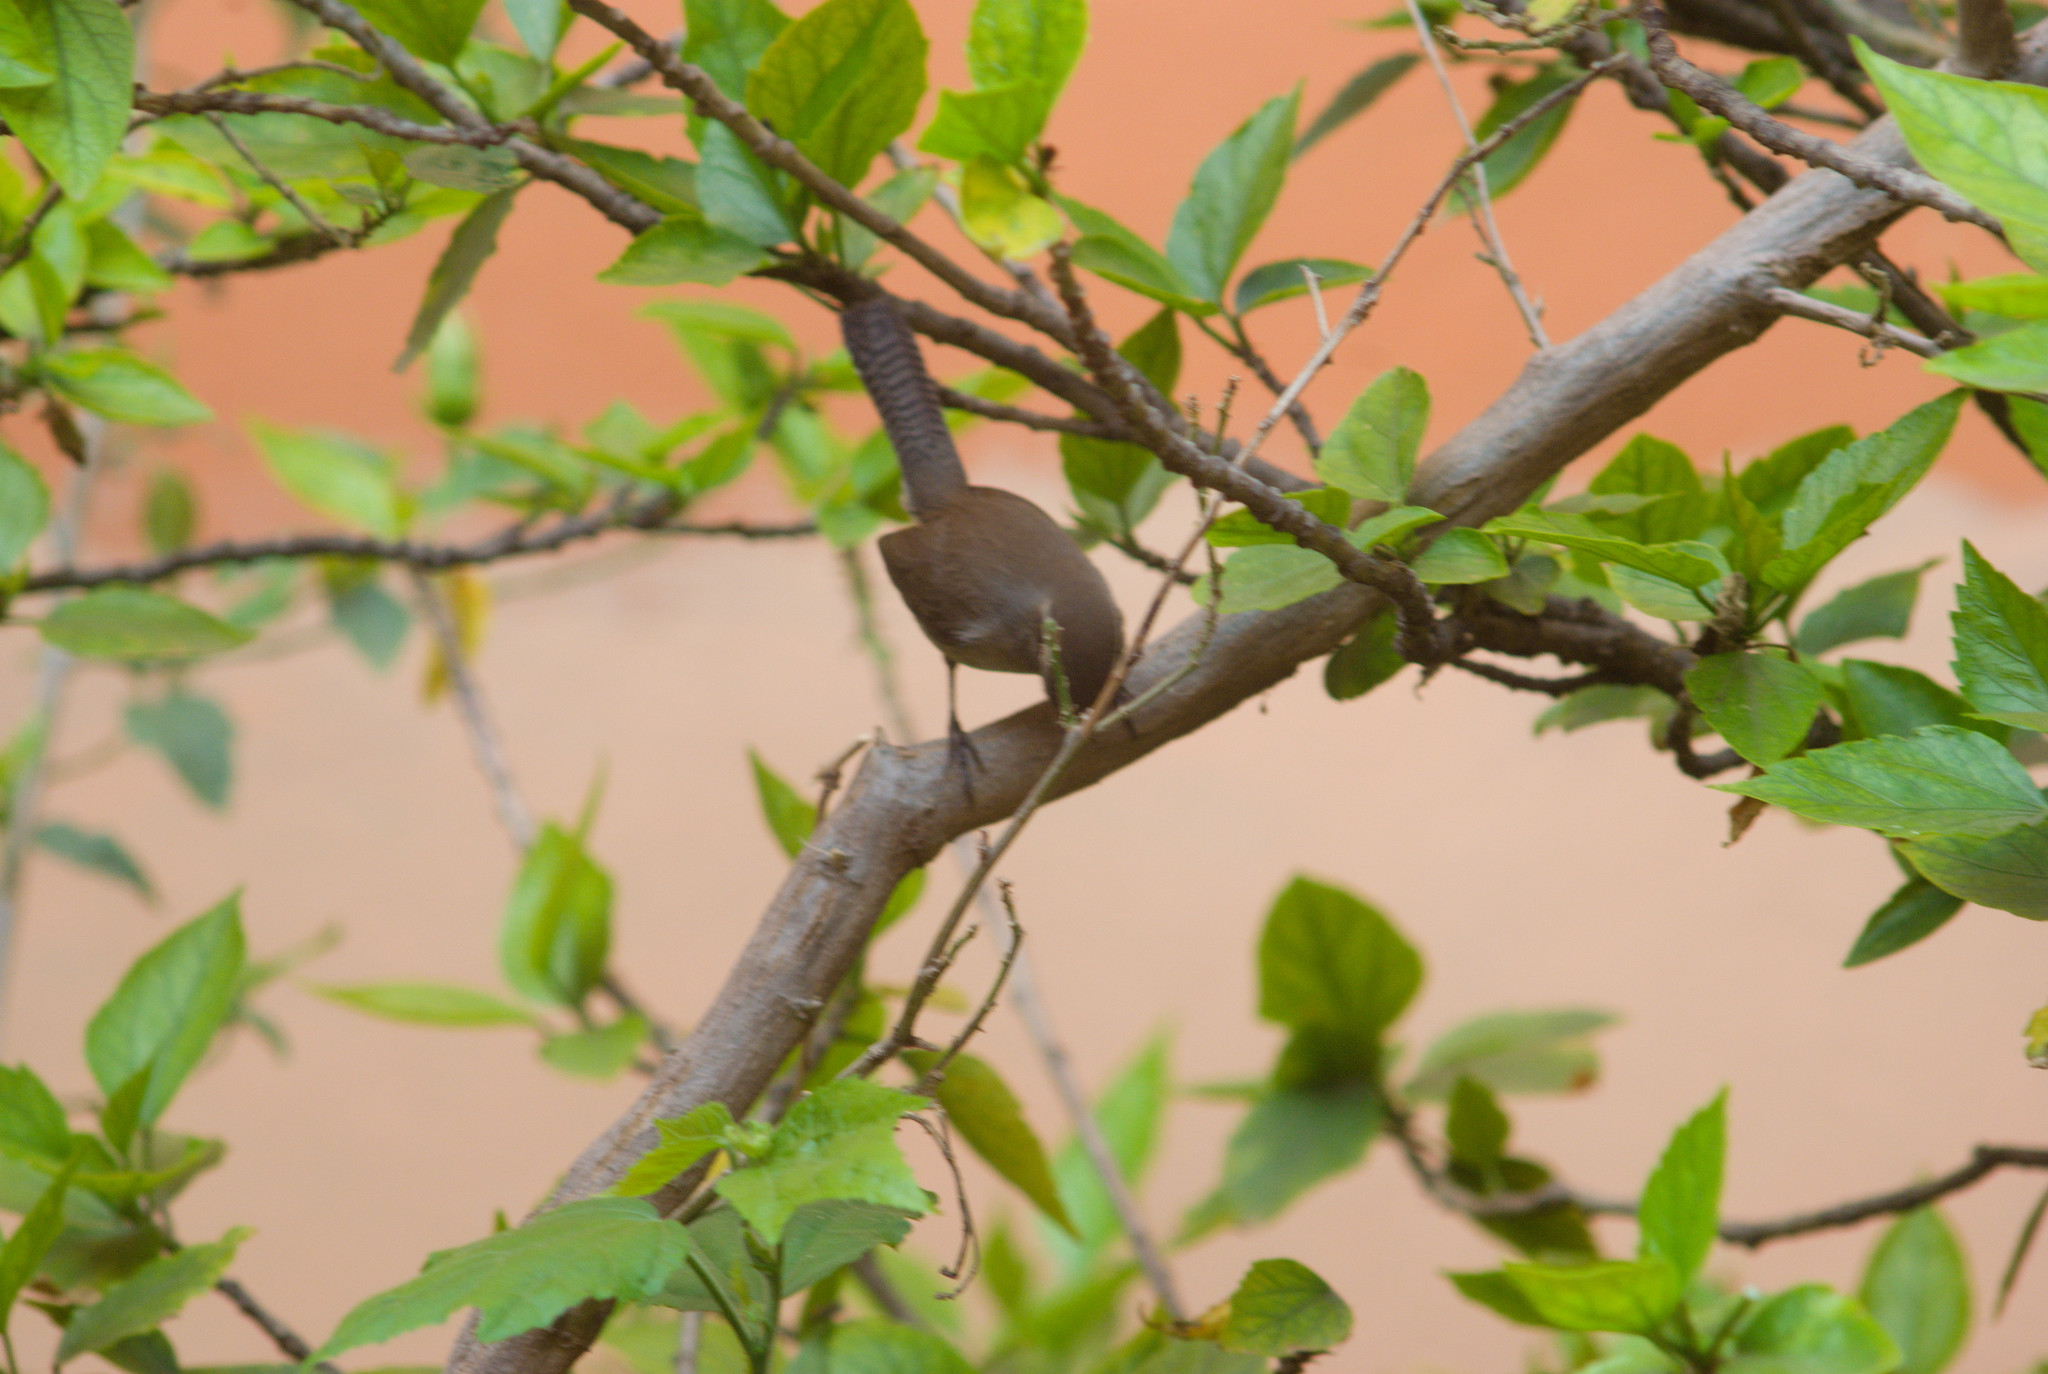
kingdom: Animalia
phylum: Chordata
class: Aves
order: Passeriformes
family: Troglodytidae
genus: Thryomanes
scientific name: Thryomanes bewickii
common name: Bewick's wren
